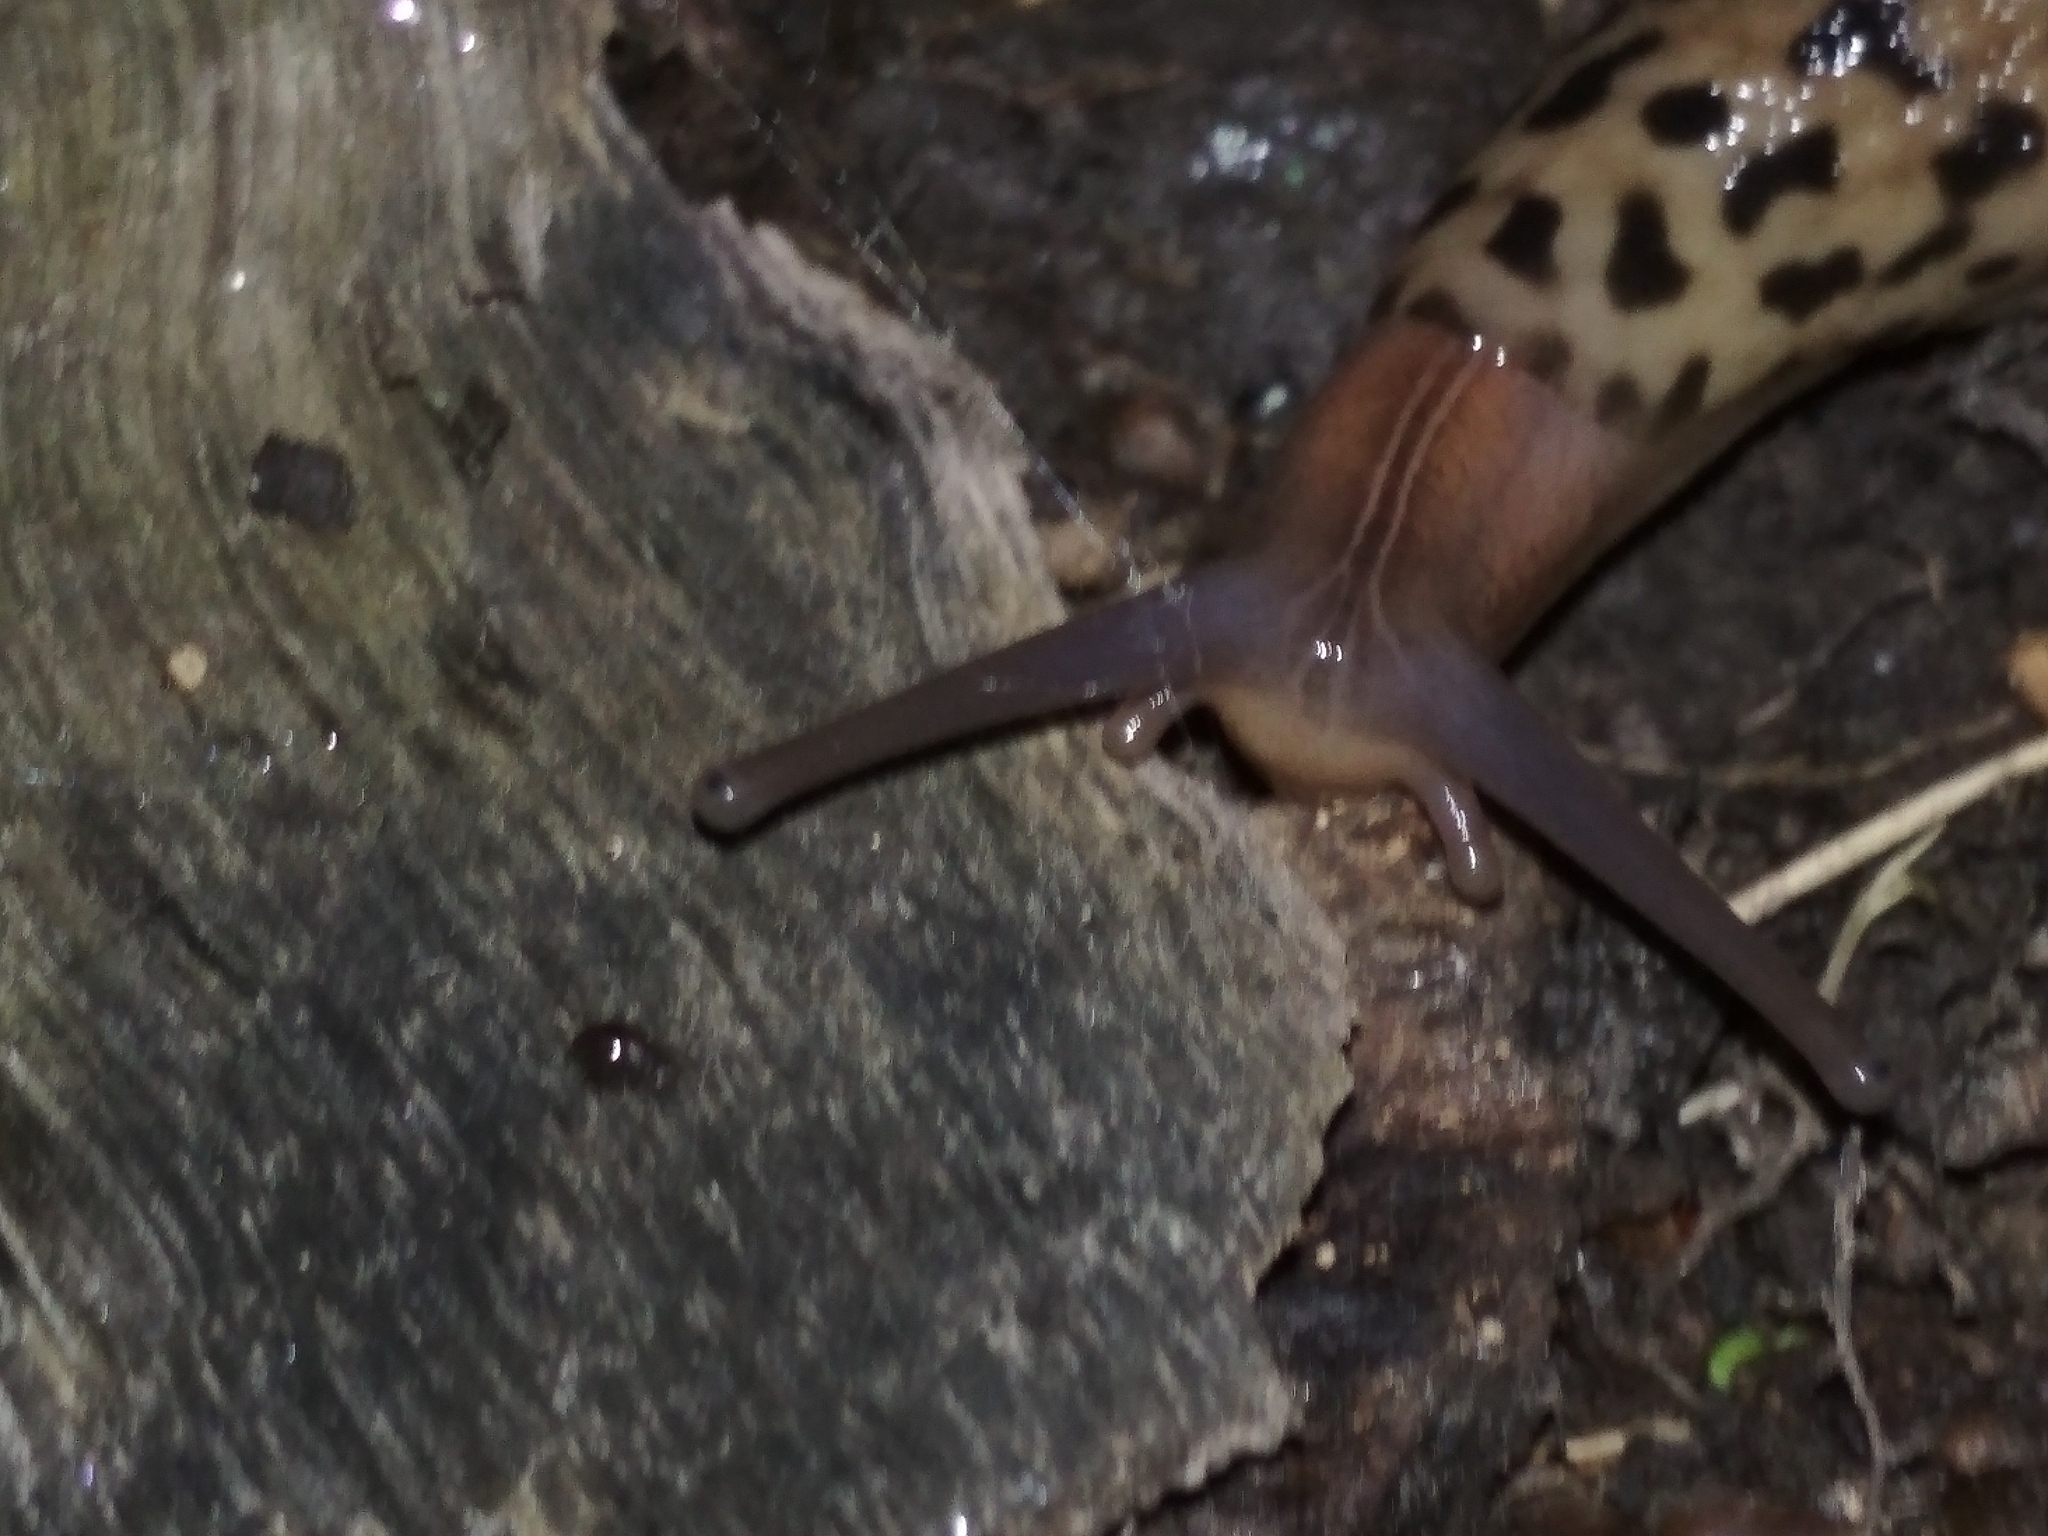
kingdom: Animalia
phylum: Mollusca
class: Gastropoda
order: Stylommatophora
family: Limacidae
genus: Limax
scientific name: Limax maximus
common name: Great grey slug
